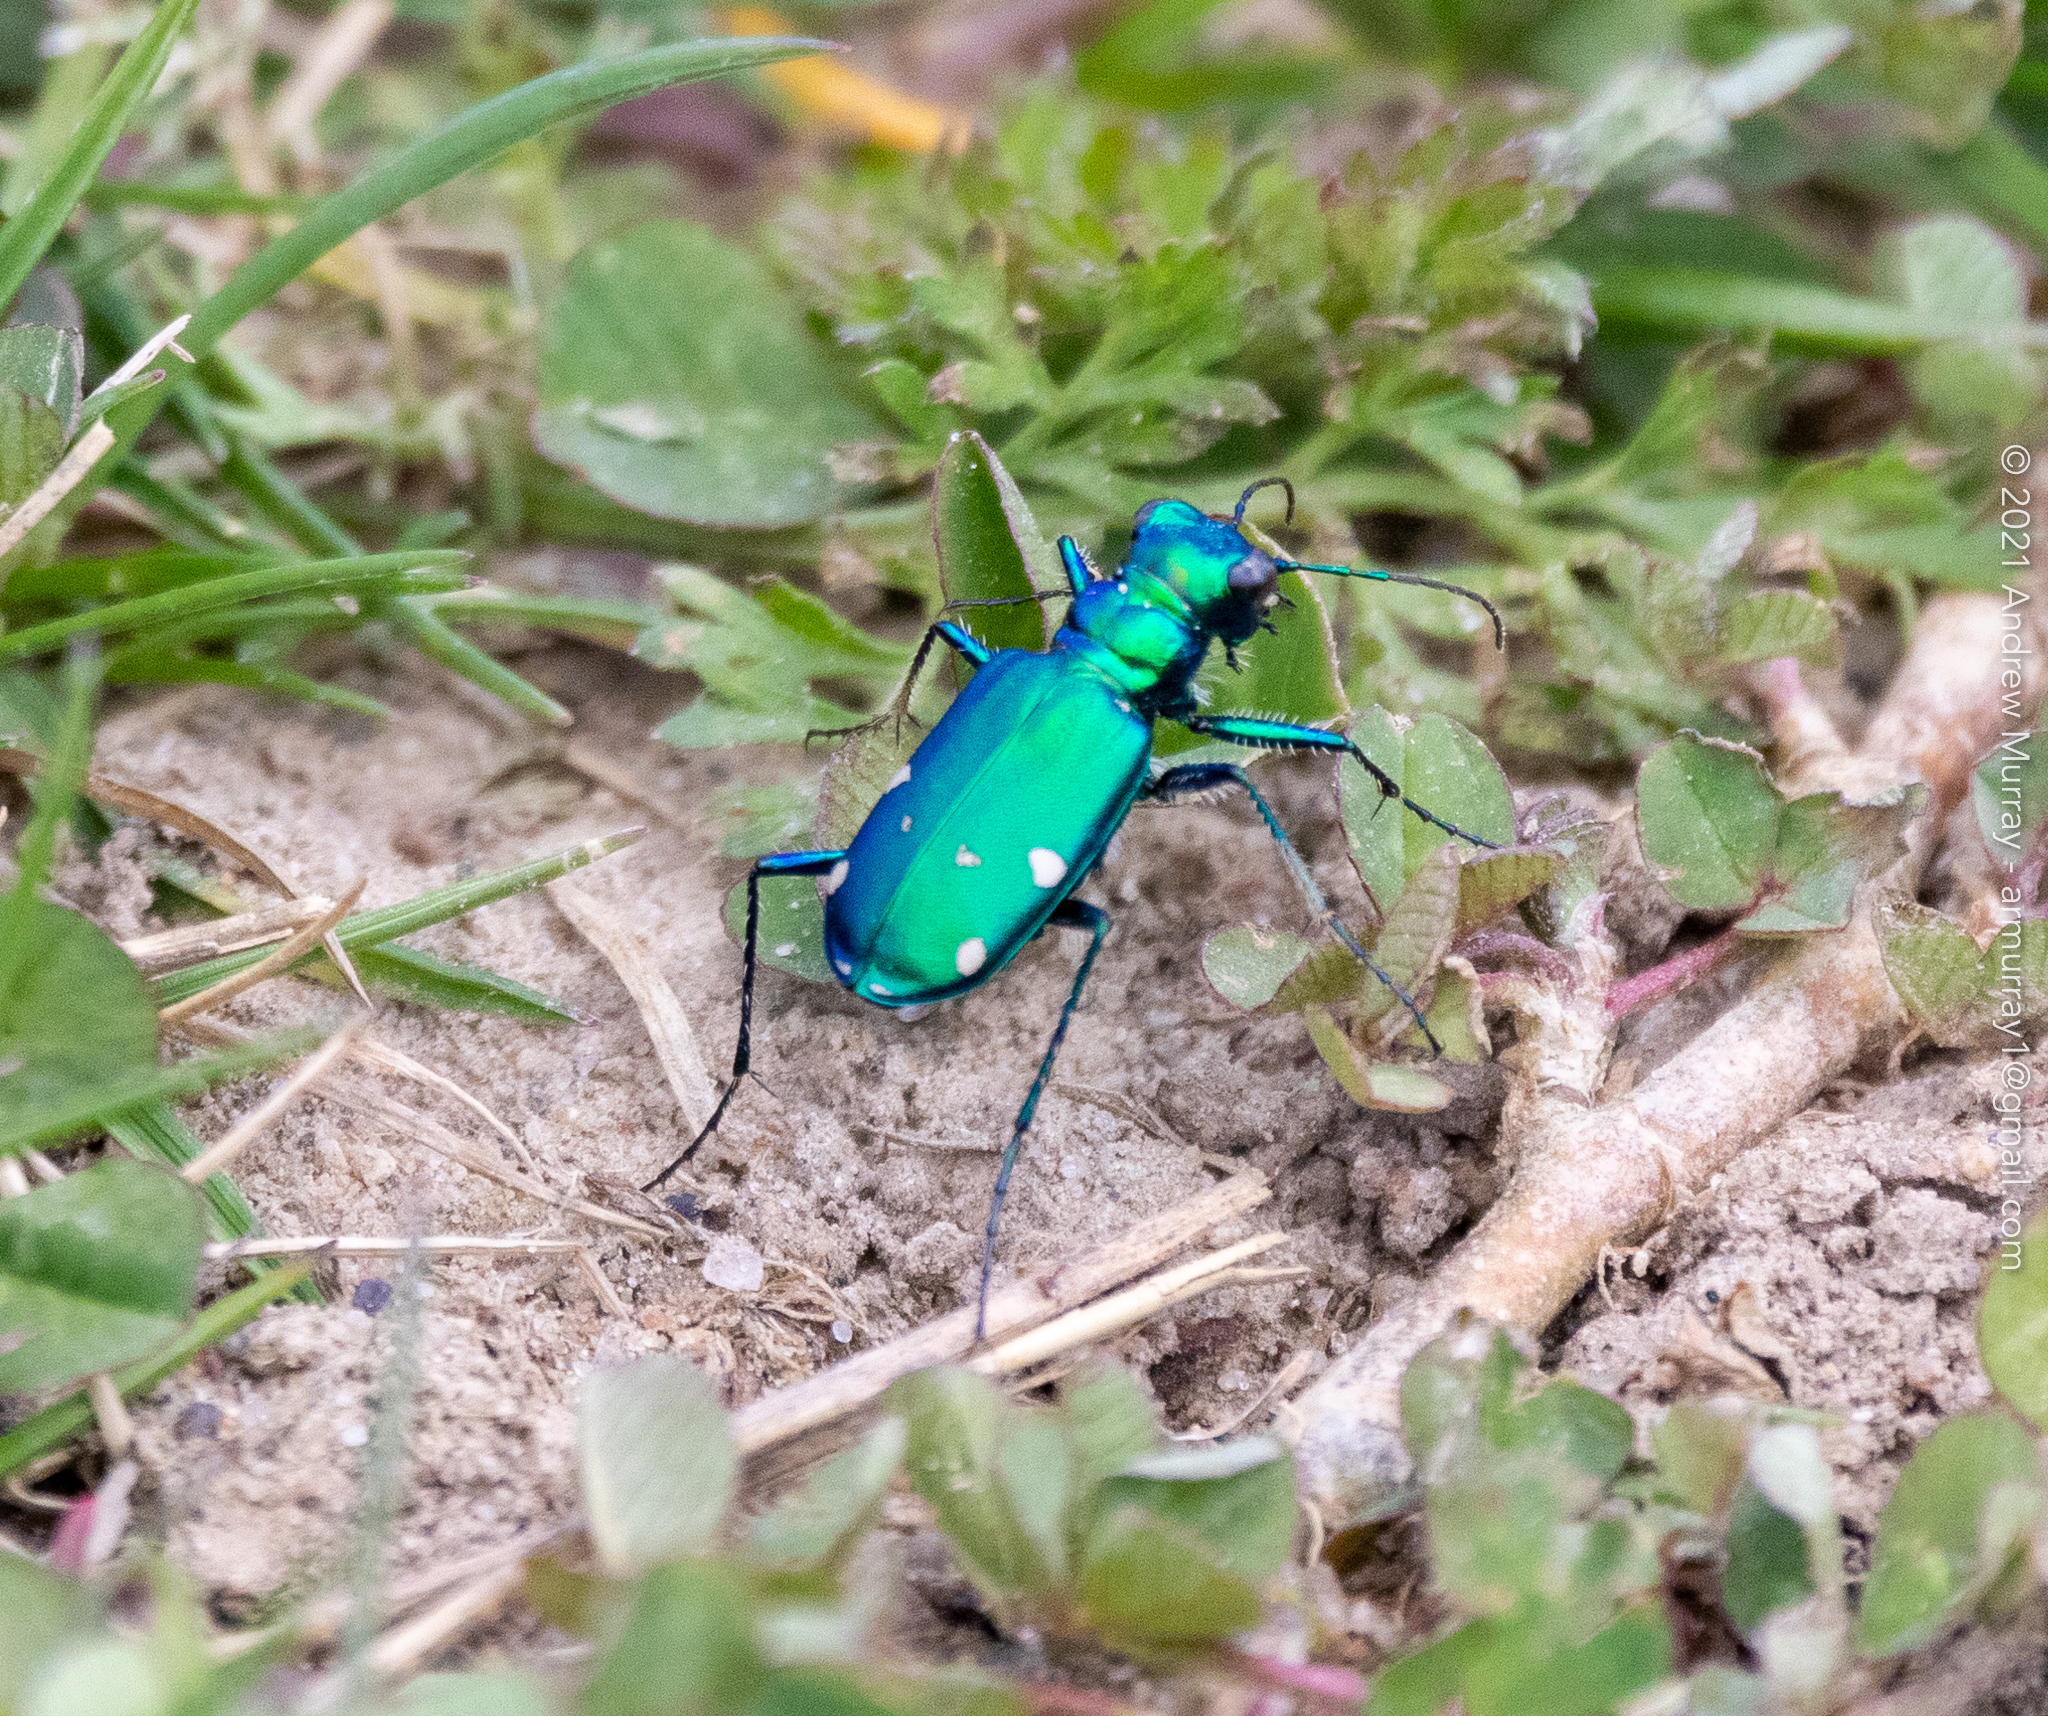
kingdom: Animalia
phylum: Arthropoda
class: Insecta
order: Coleoptera
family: Carabidae
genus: Cicindela
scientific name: Cicindela sexguttata
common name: Six-spotted tiger beetle
